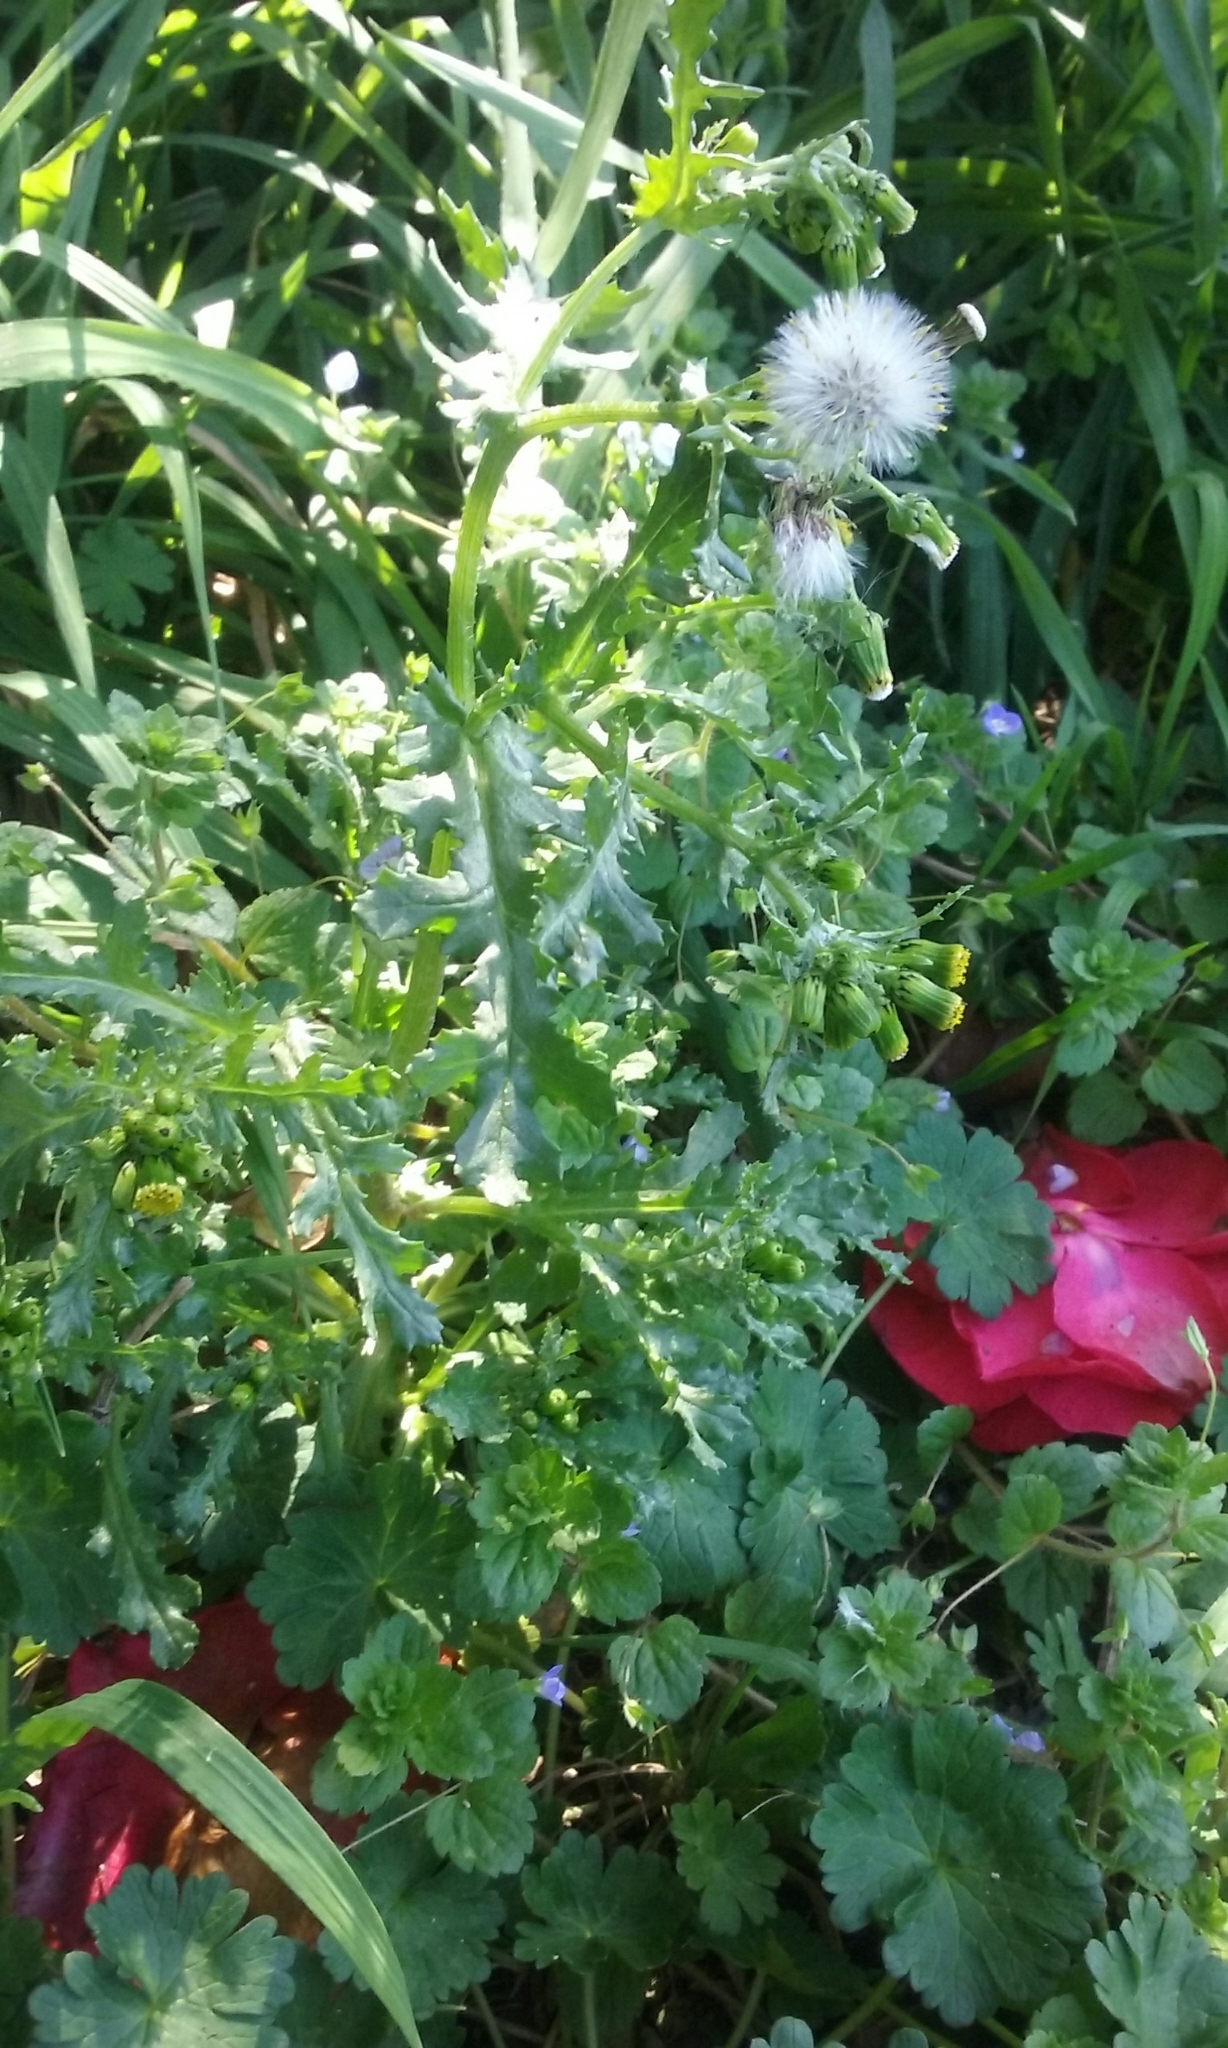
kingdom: Plantae
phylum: Tracheophyta
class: Magnoliopsida
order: Asterales
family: Asteraceae
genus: Senecio
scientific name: Senecio vulgaris
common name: Old-man-in-the-spring
